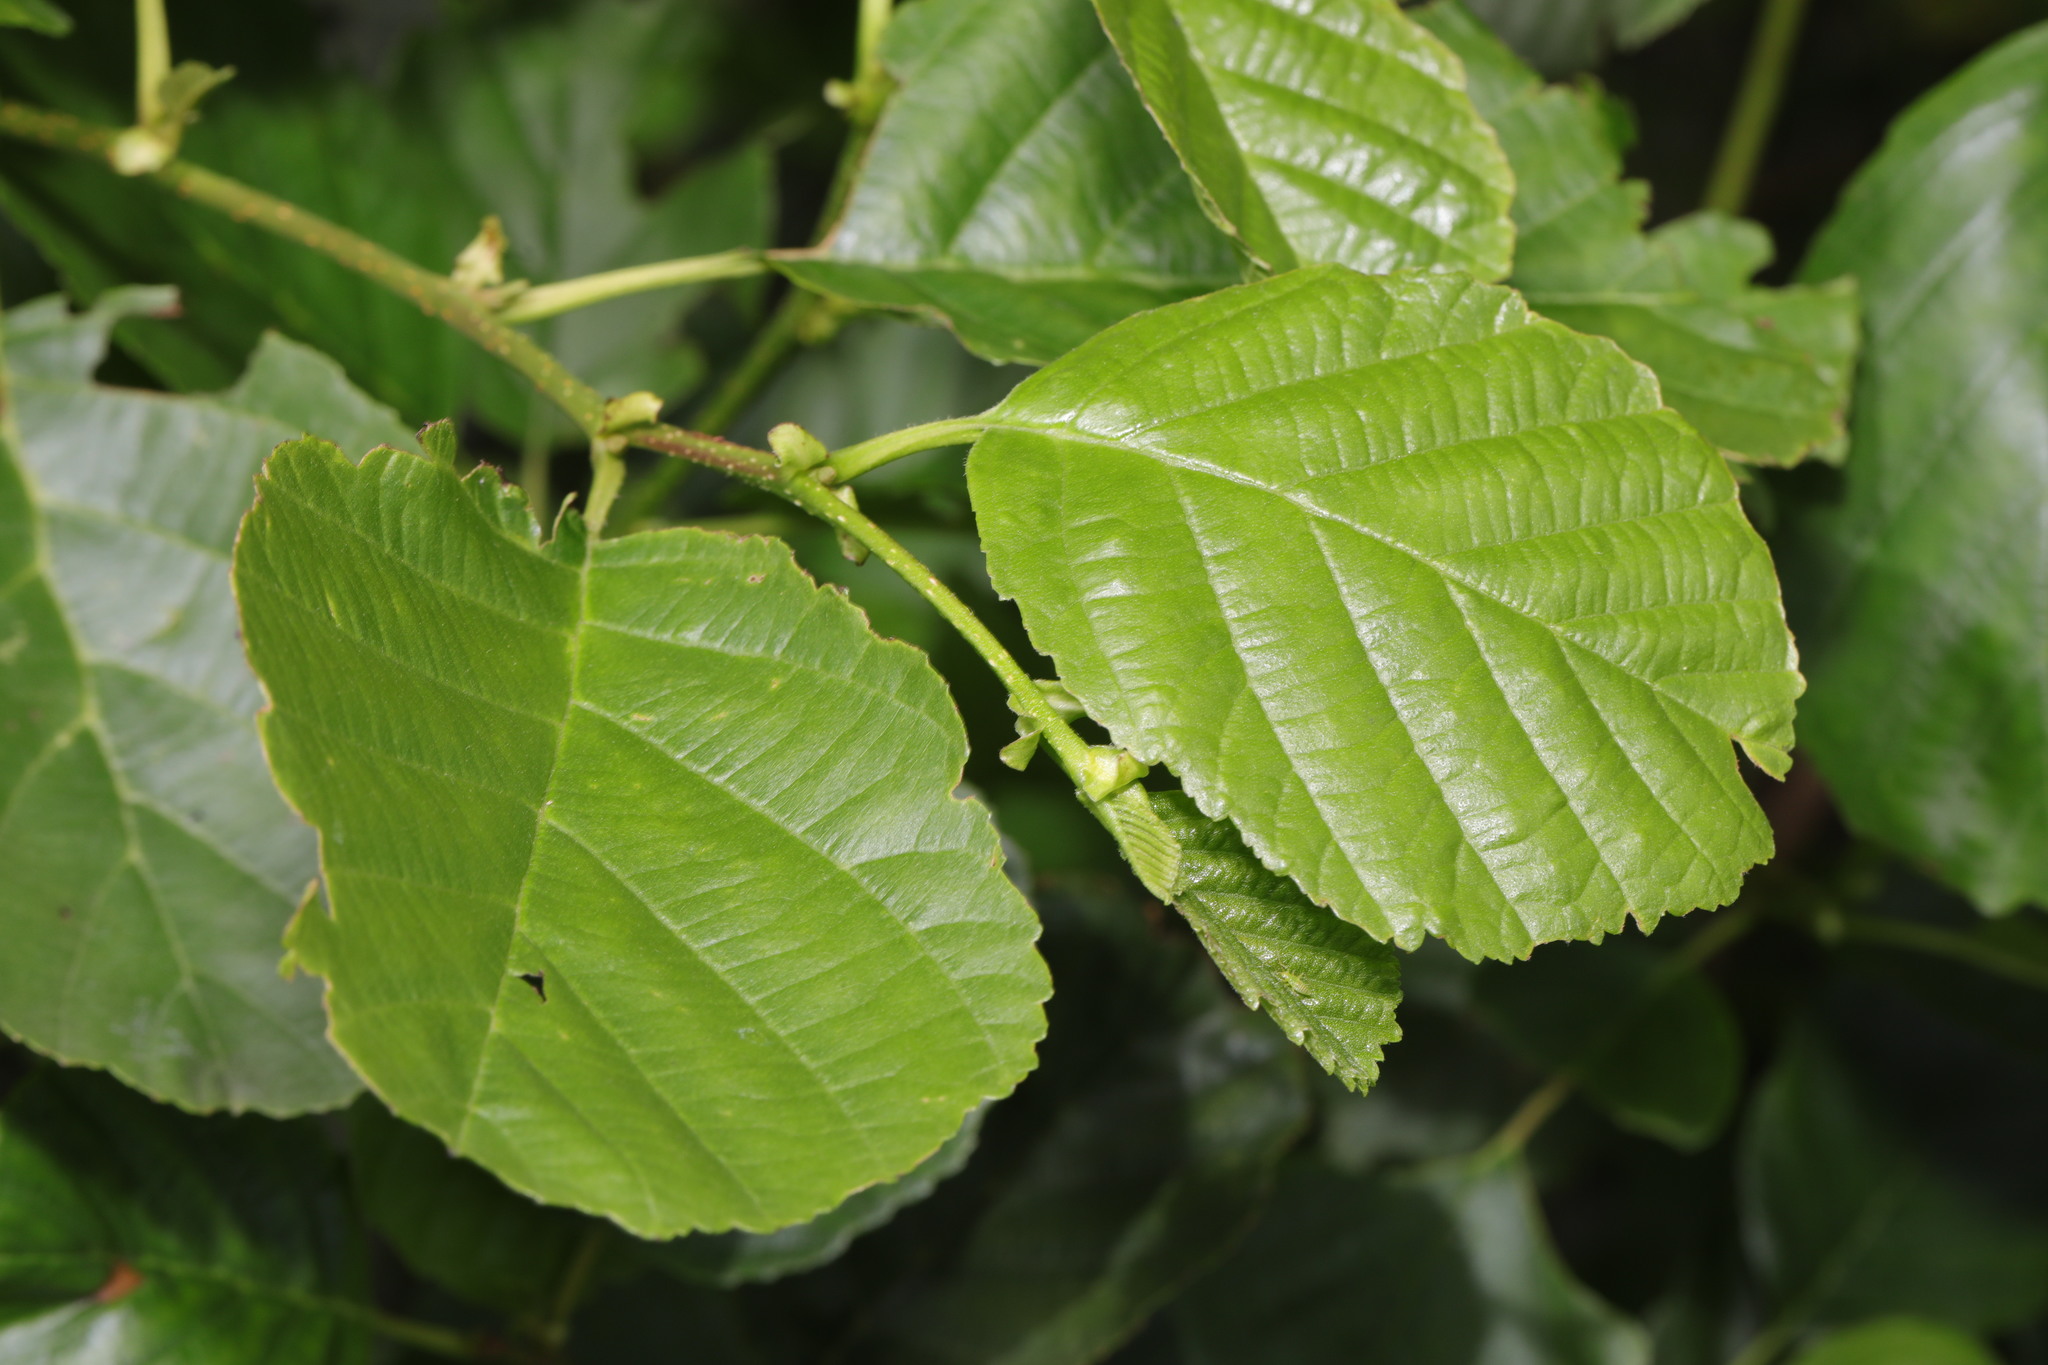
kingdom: Plantae
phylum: Tracheophyta
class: Magnoliopsida
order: Fagales
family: Betulaceae
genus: Alnus
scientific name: Alnus glutinosa
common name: Black alder
